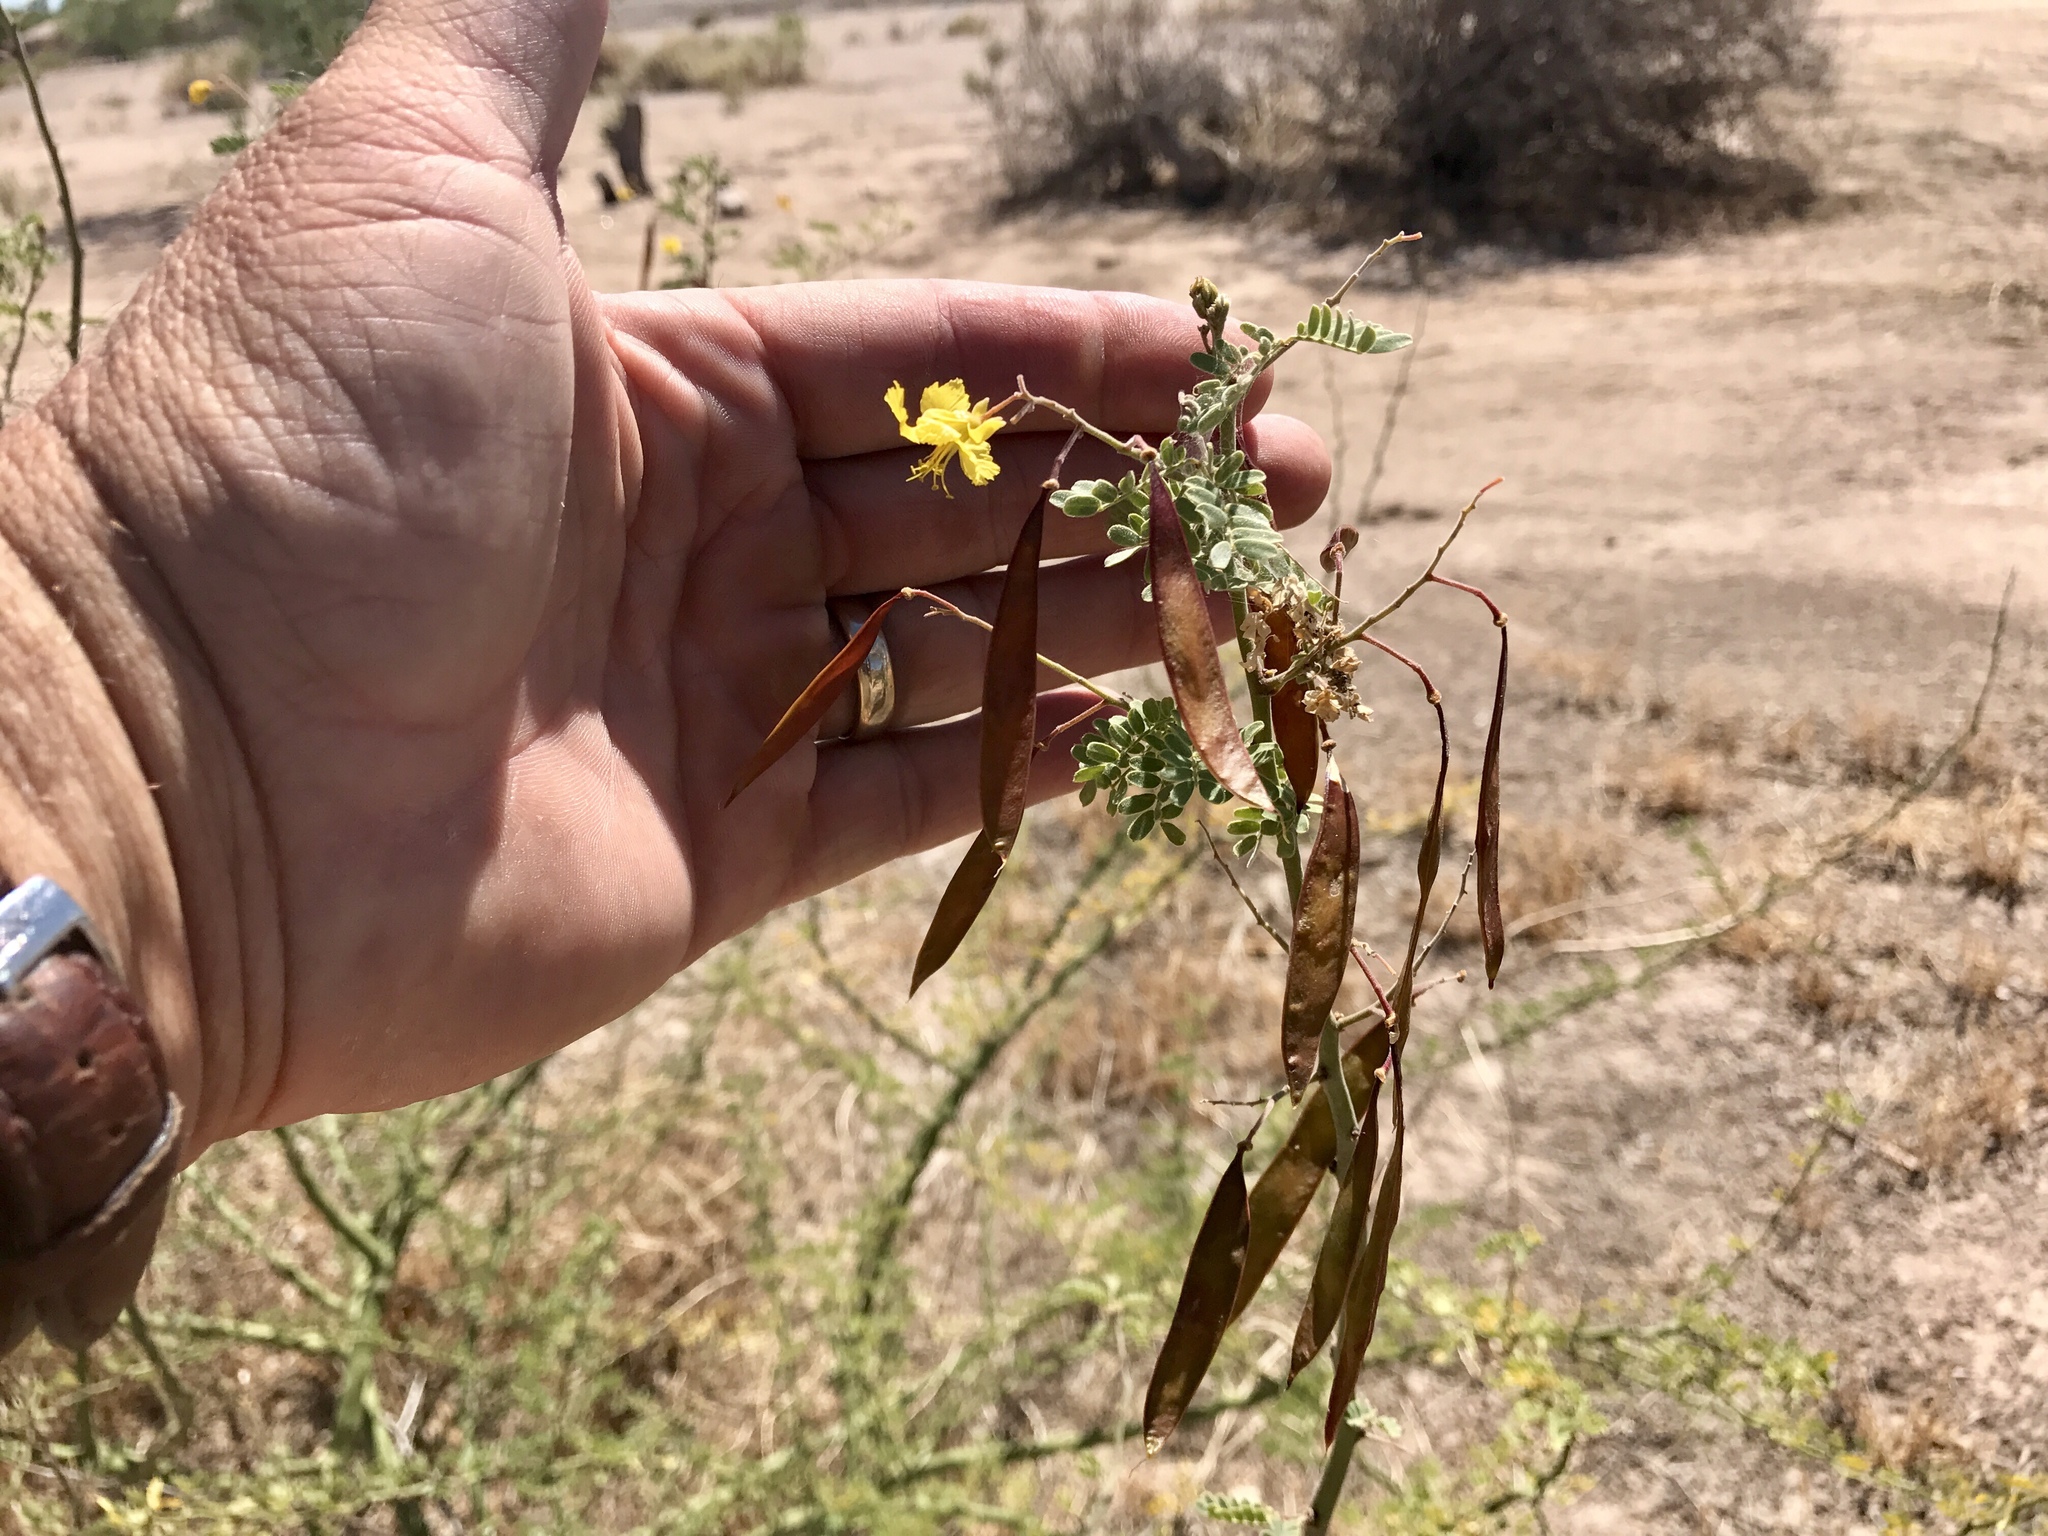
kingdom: Plantae
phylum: Tracheophyta
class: Magnoliopsida
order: Fabales
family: Fabaceae
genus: Parkinsonia
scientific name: Parkinsonia praecox
